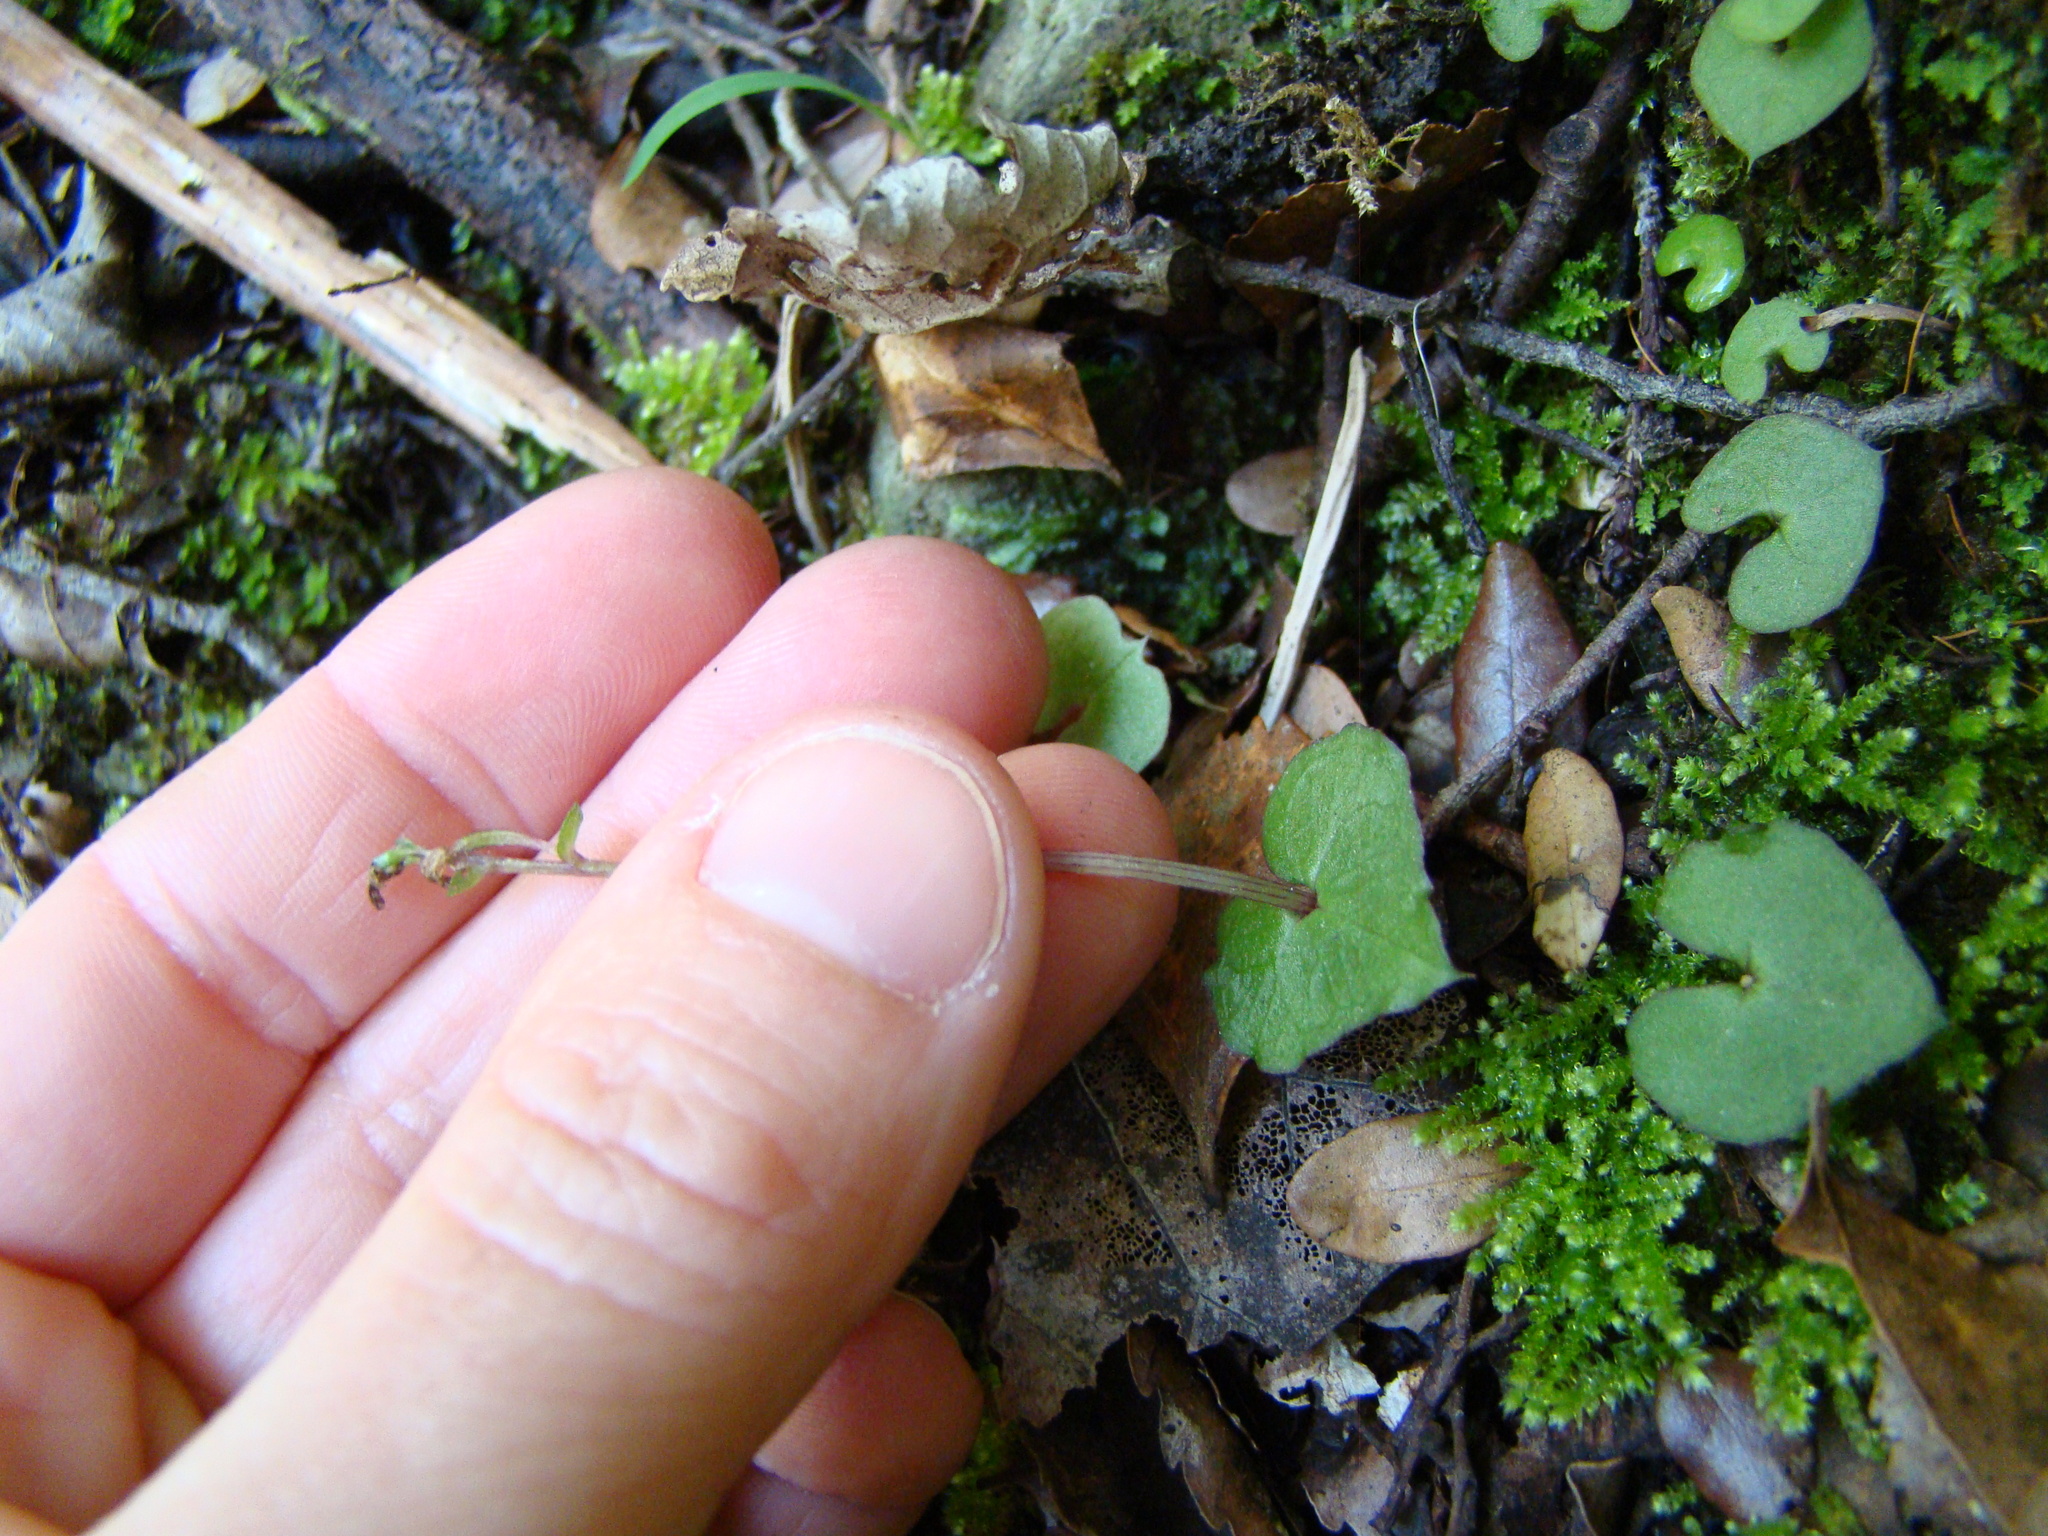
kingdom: Plantae
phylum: Tracheophyta
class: Liliopsida
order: Asparagales
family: Orchidaceae
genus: Acianthus
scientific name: Acianthus sinclairii
